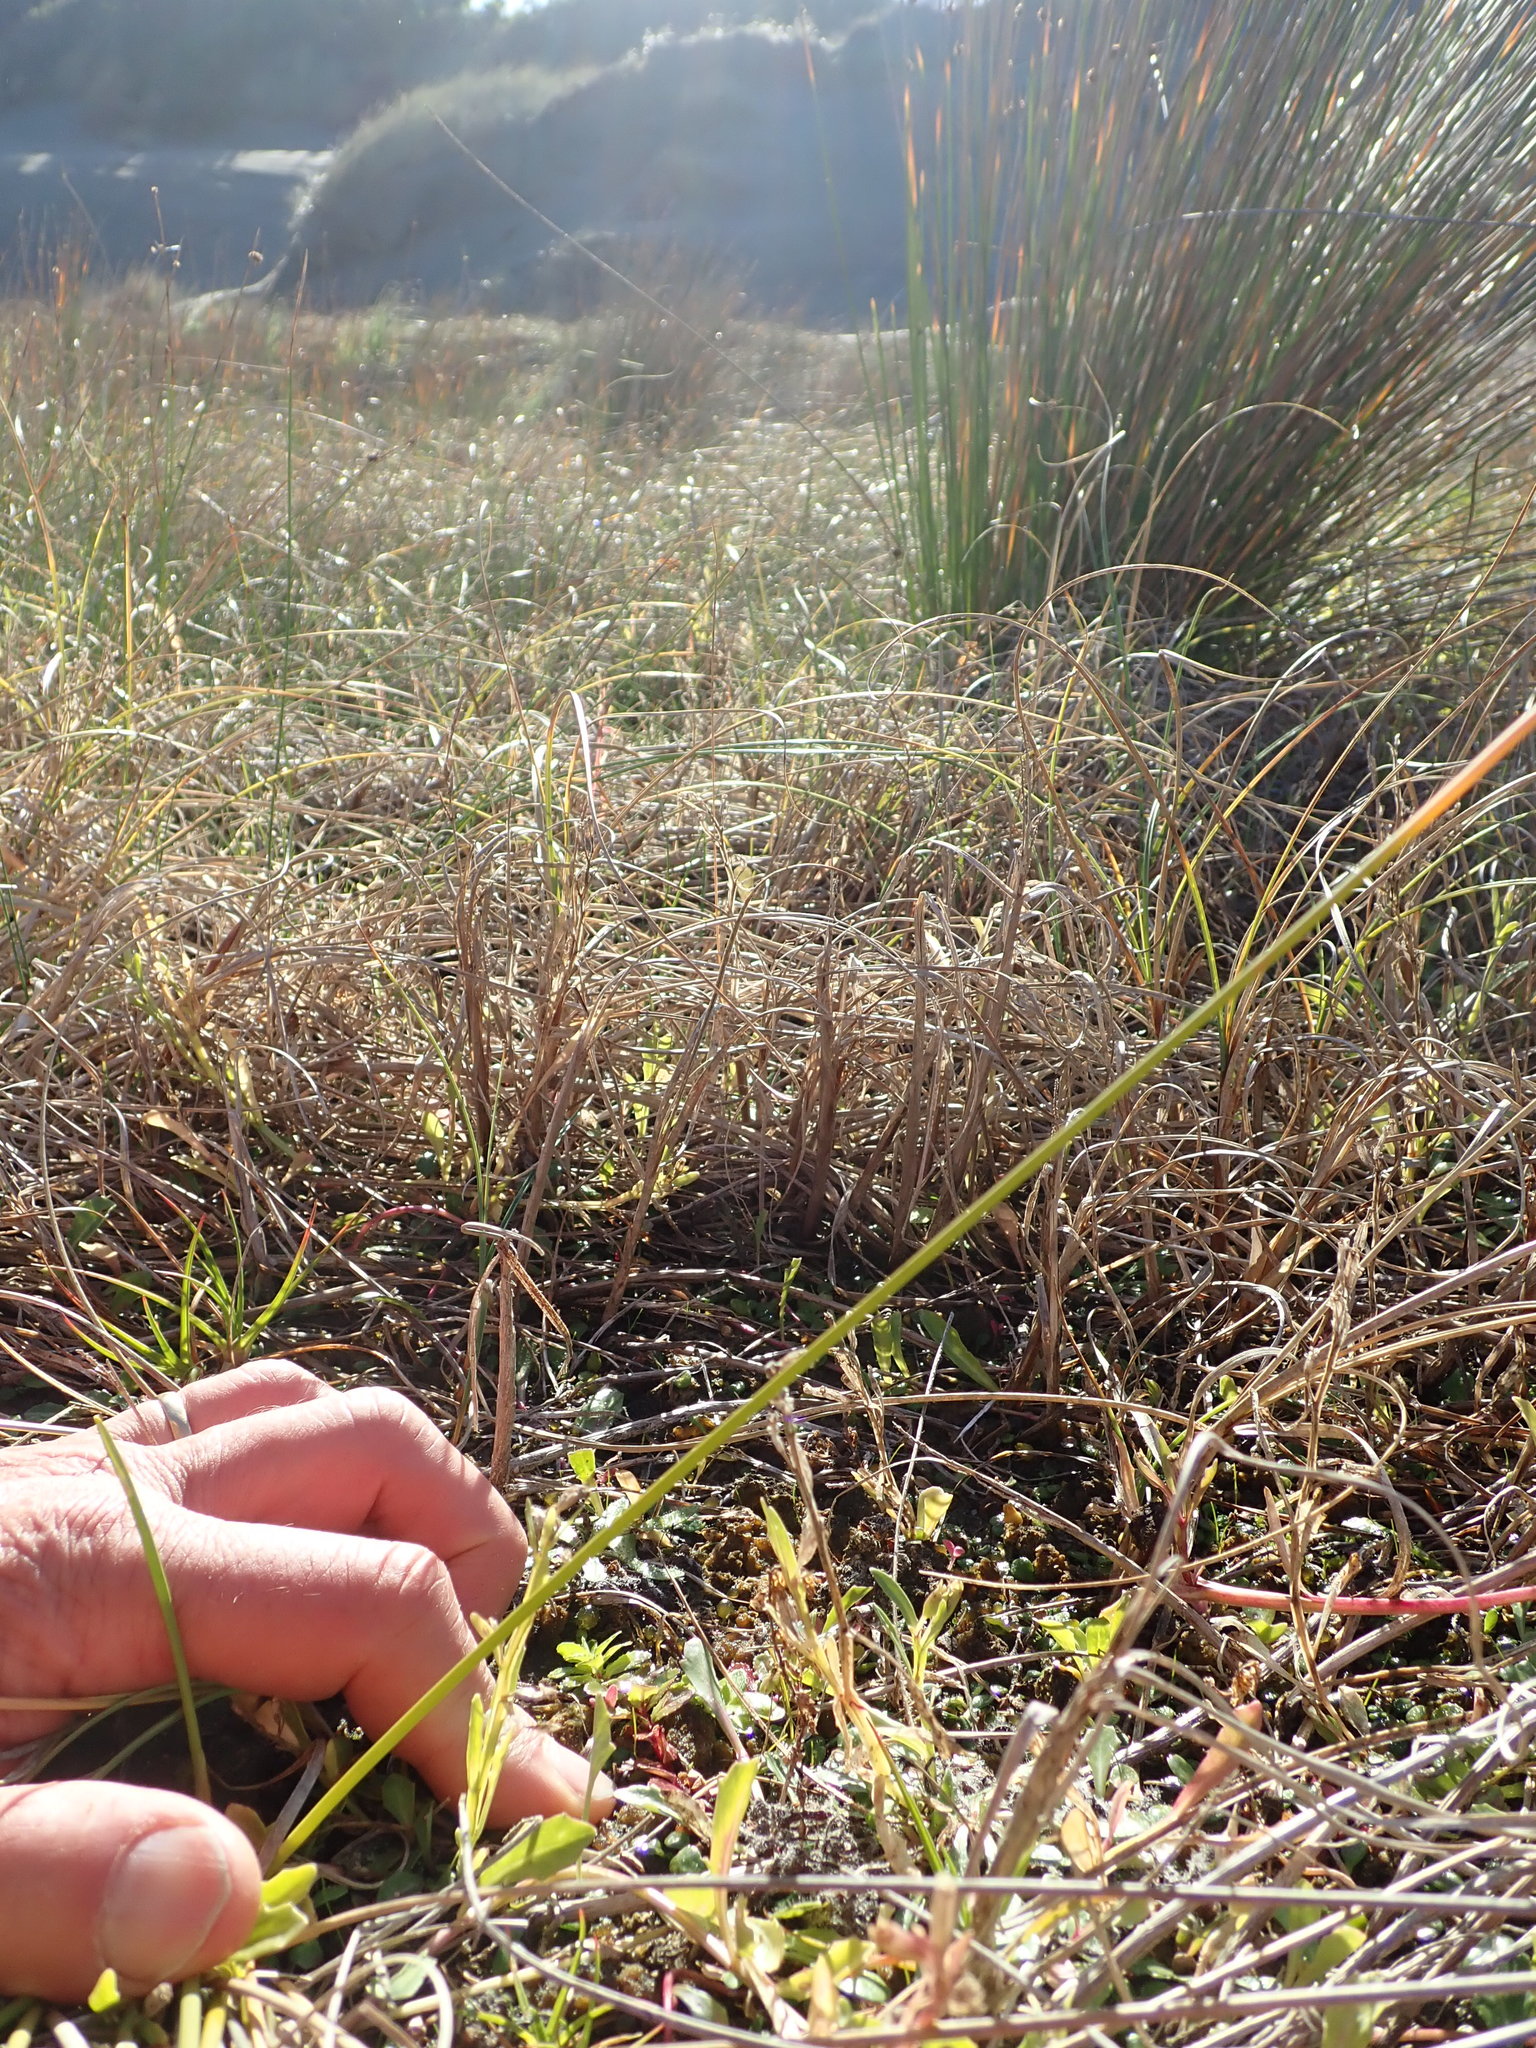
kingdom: Plantae
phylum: Tracheophyta
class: Magnoliopsida
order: Myrtales
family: Onagraceae
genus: Epilobium
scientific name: Epilobium billardiereanum
